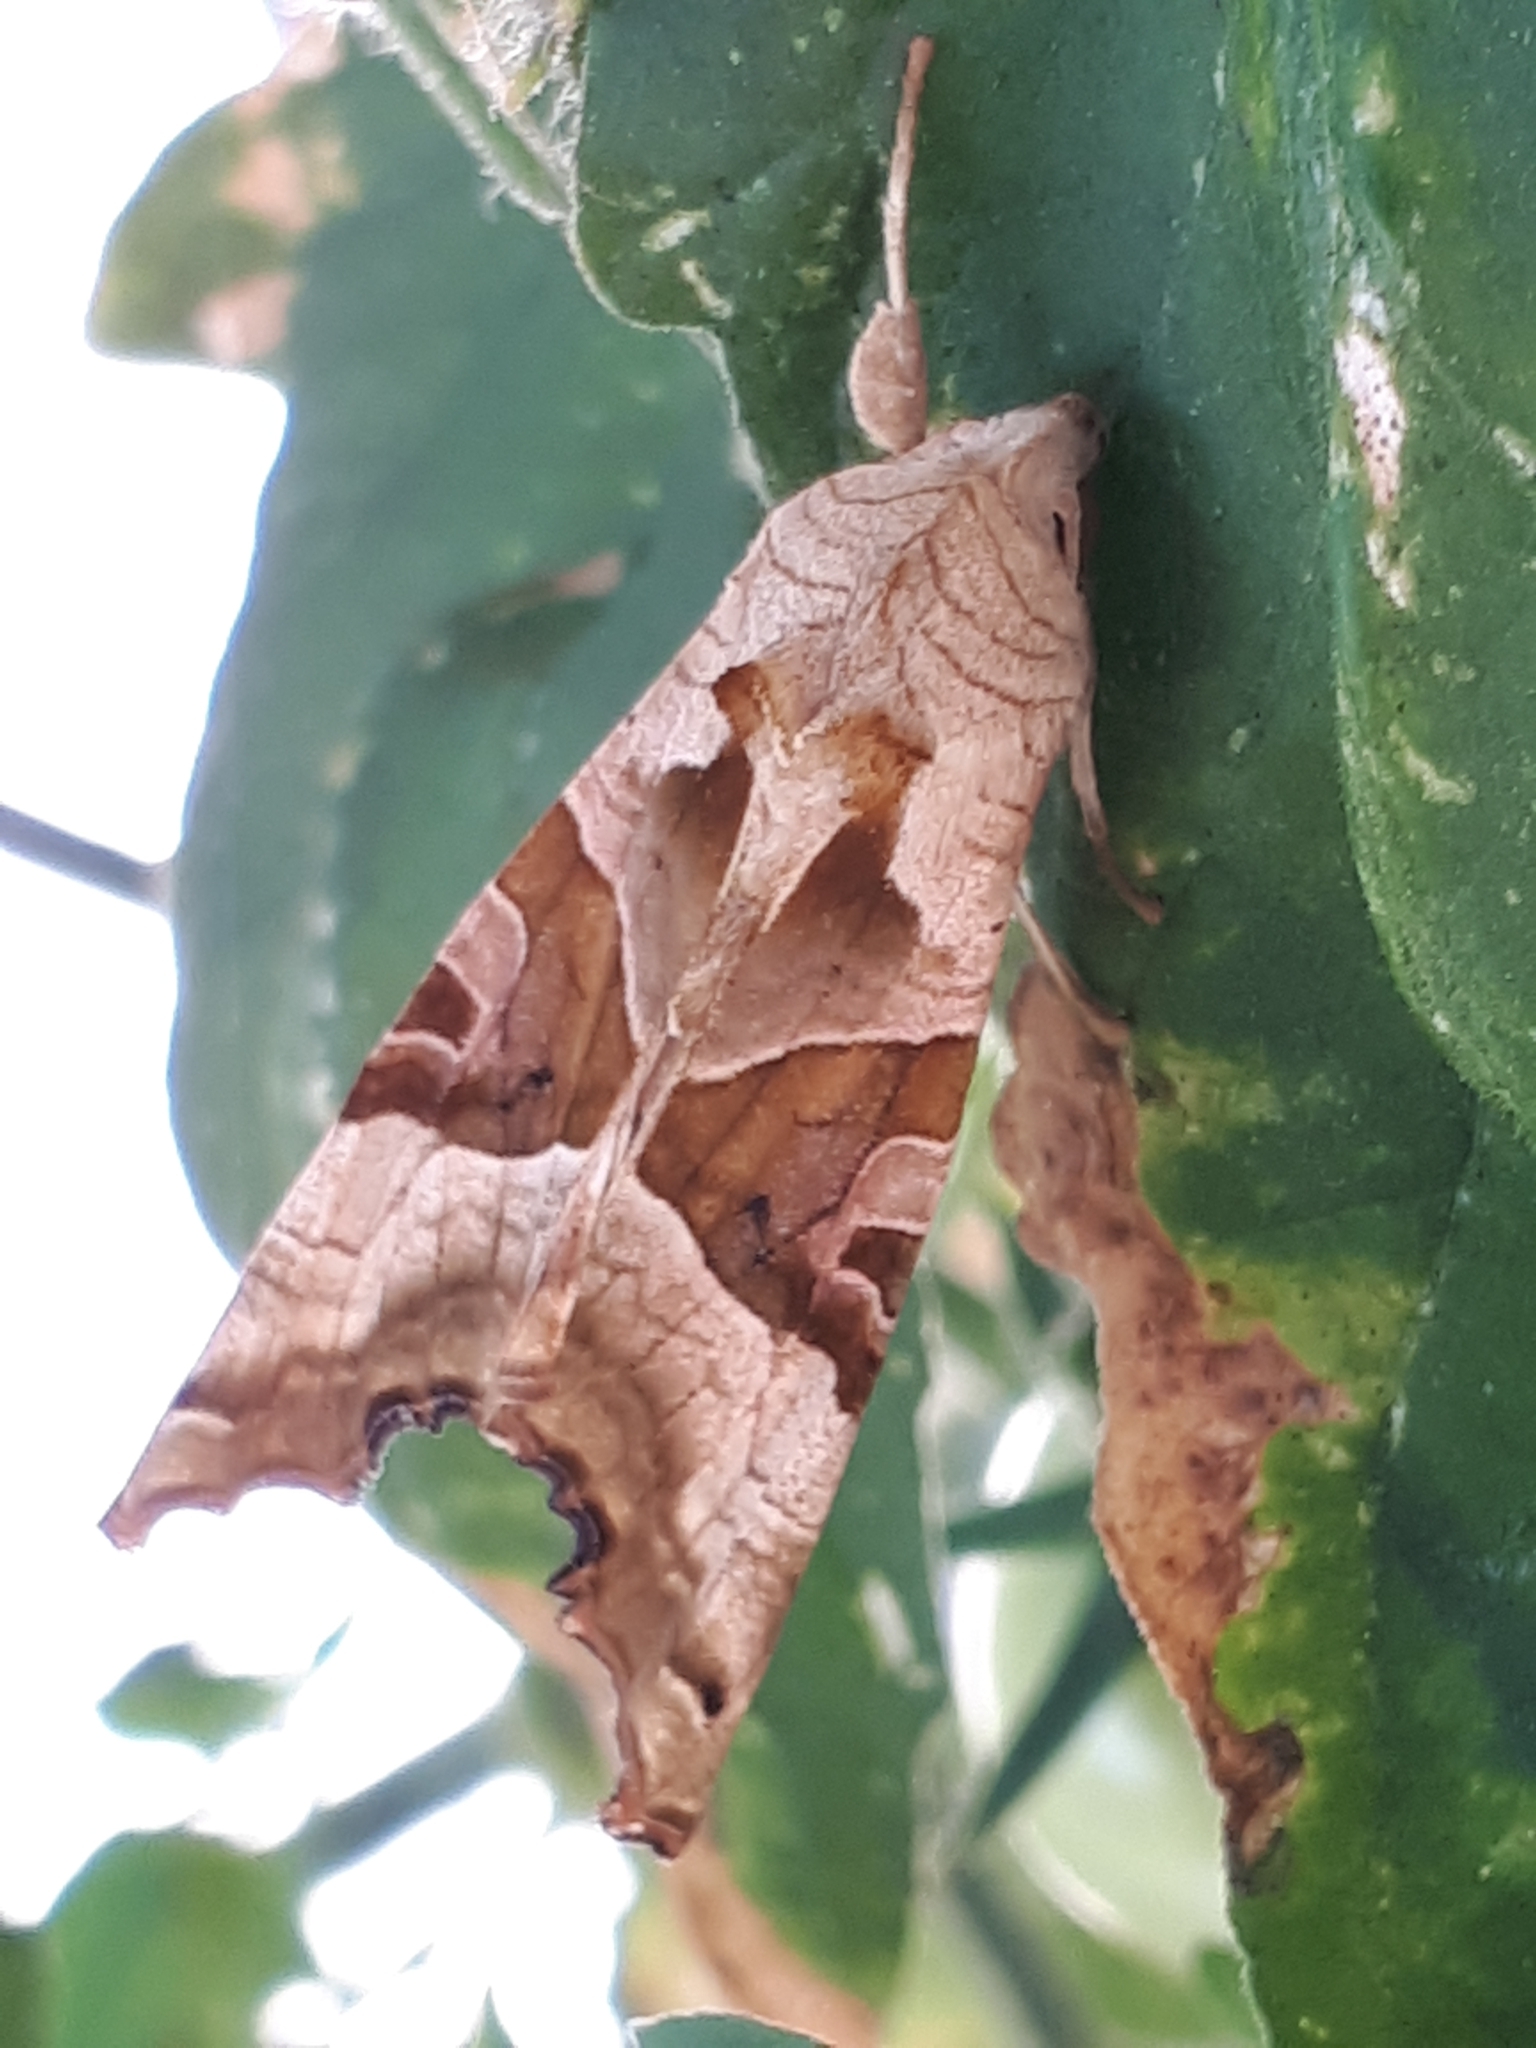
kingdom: Animalia
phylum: Arthropoda
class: Insecta
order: Lepidoptera
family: Noctuidae
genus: Phlogophora
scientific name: Phlogophora meticulosa
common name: Angle shades
